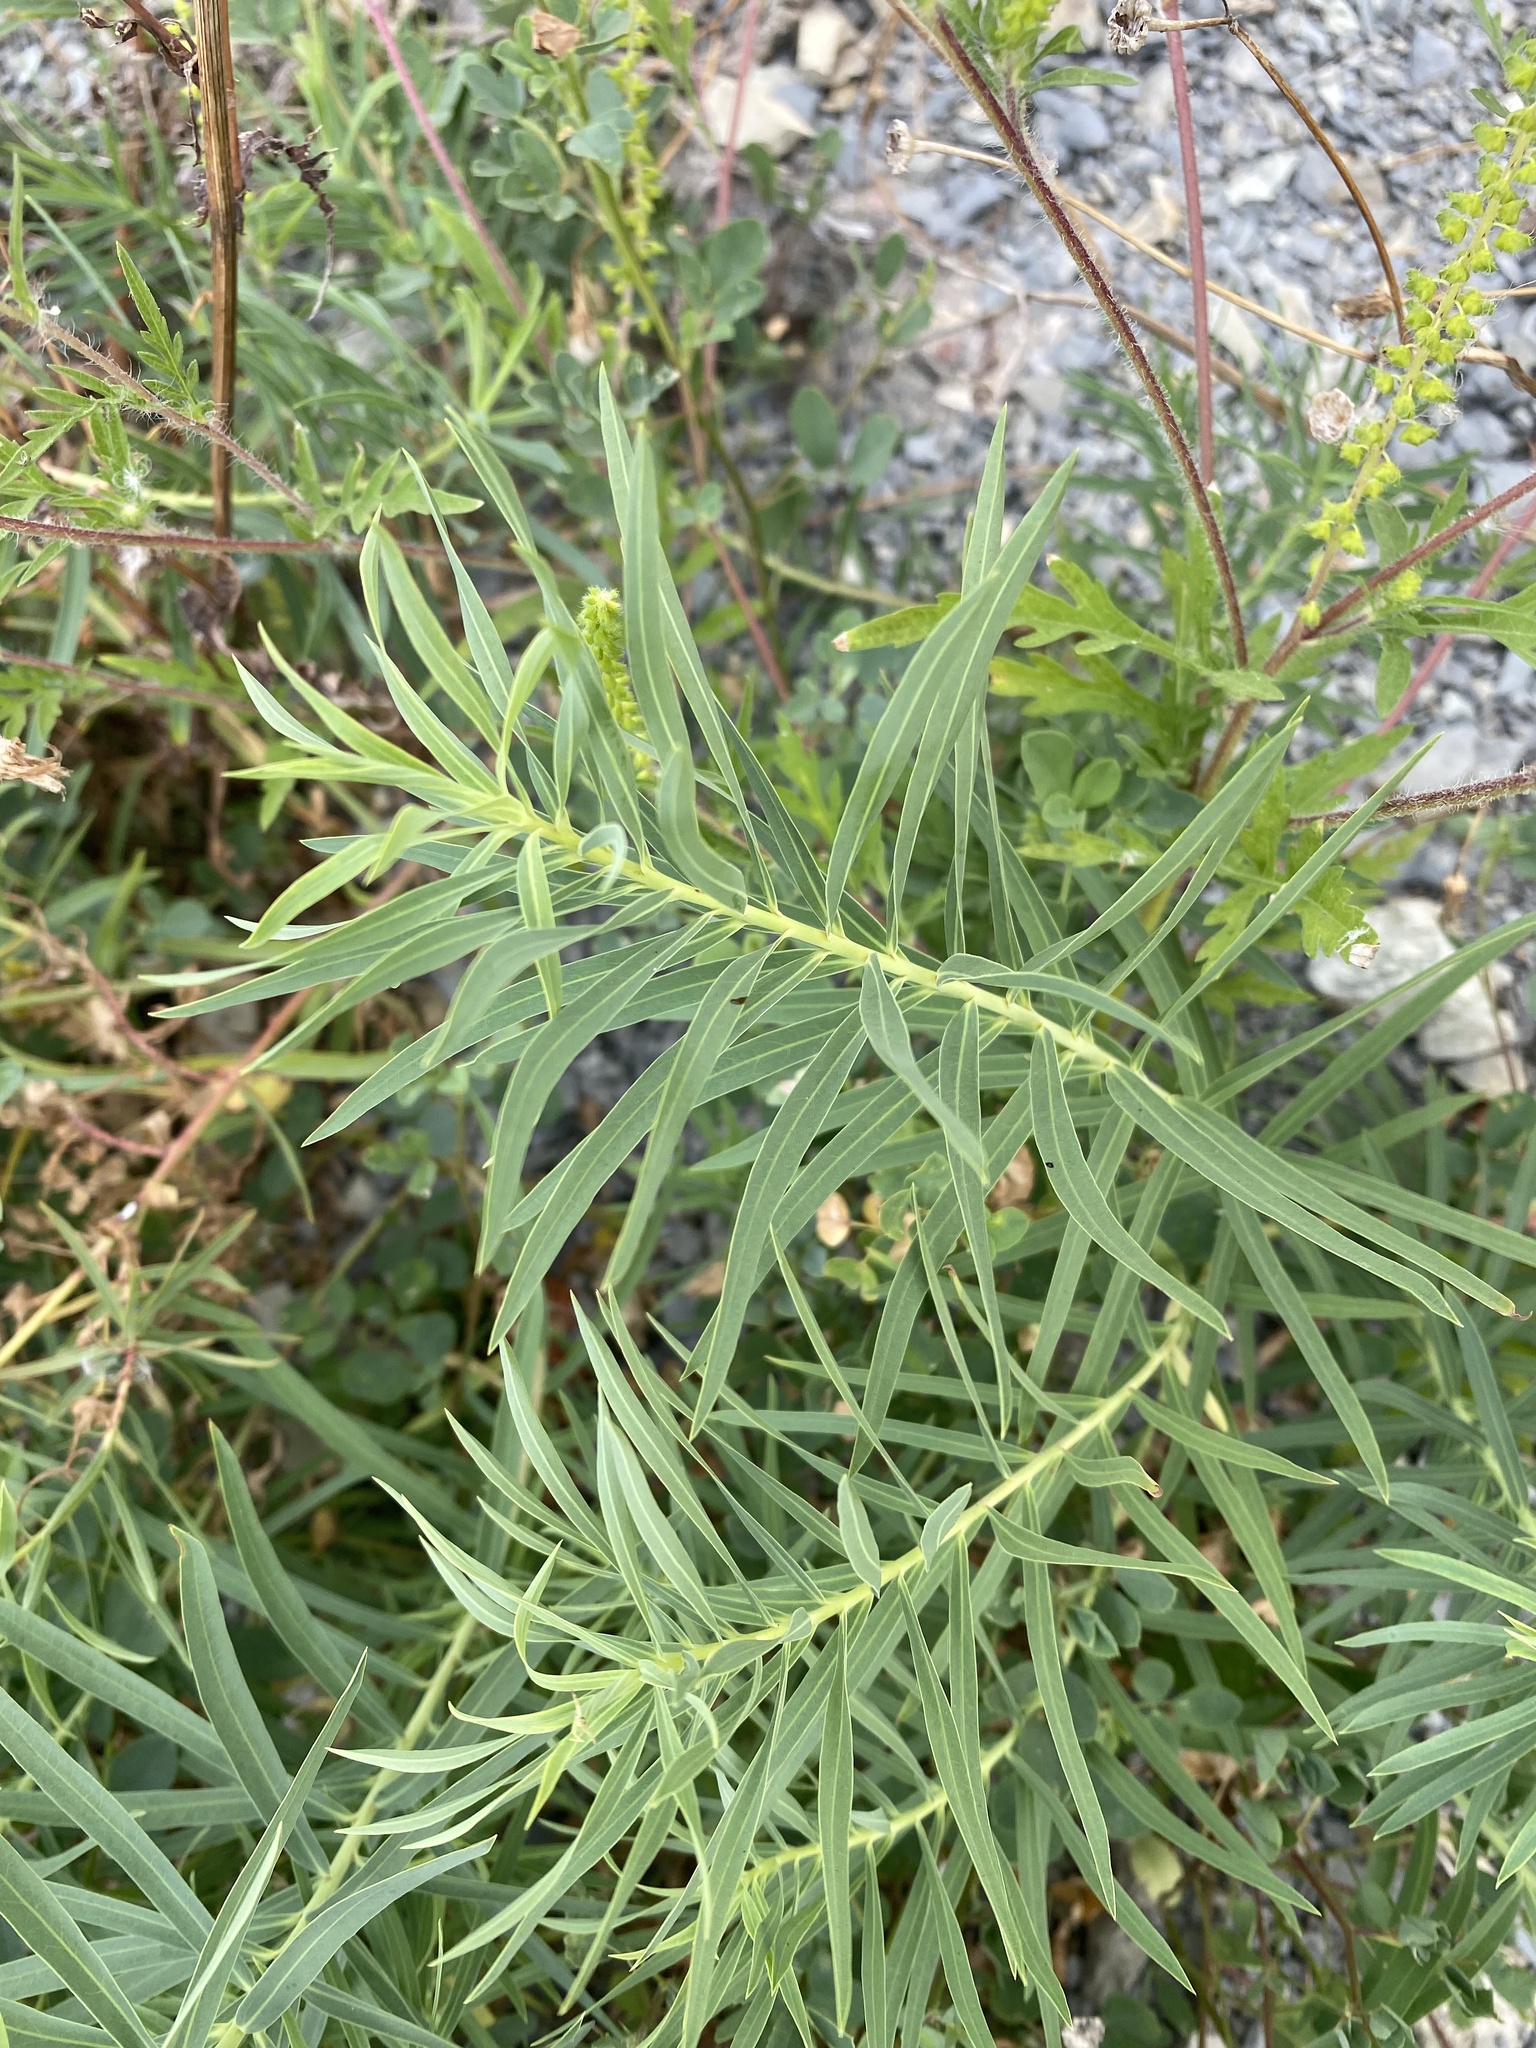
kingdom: Plantae
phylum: Tracheophyta
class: Magnoliopsida
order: Malpighiales
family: Euphorbiaceae
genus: Euphorbia
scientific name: Euphorbia virgata
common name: Leafy spurge
